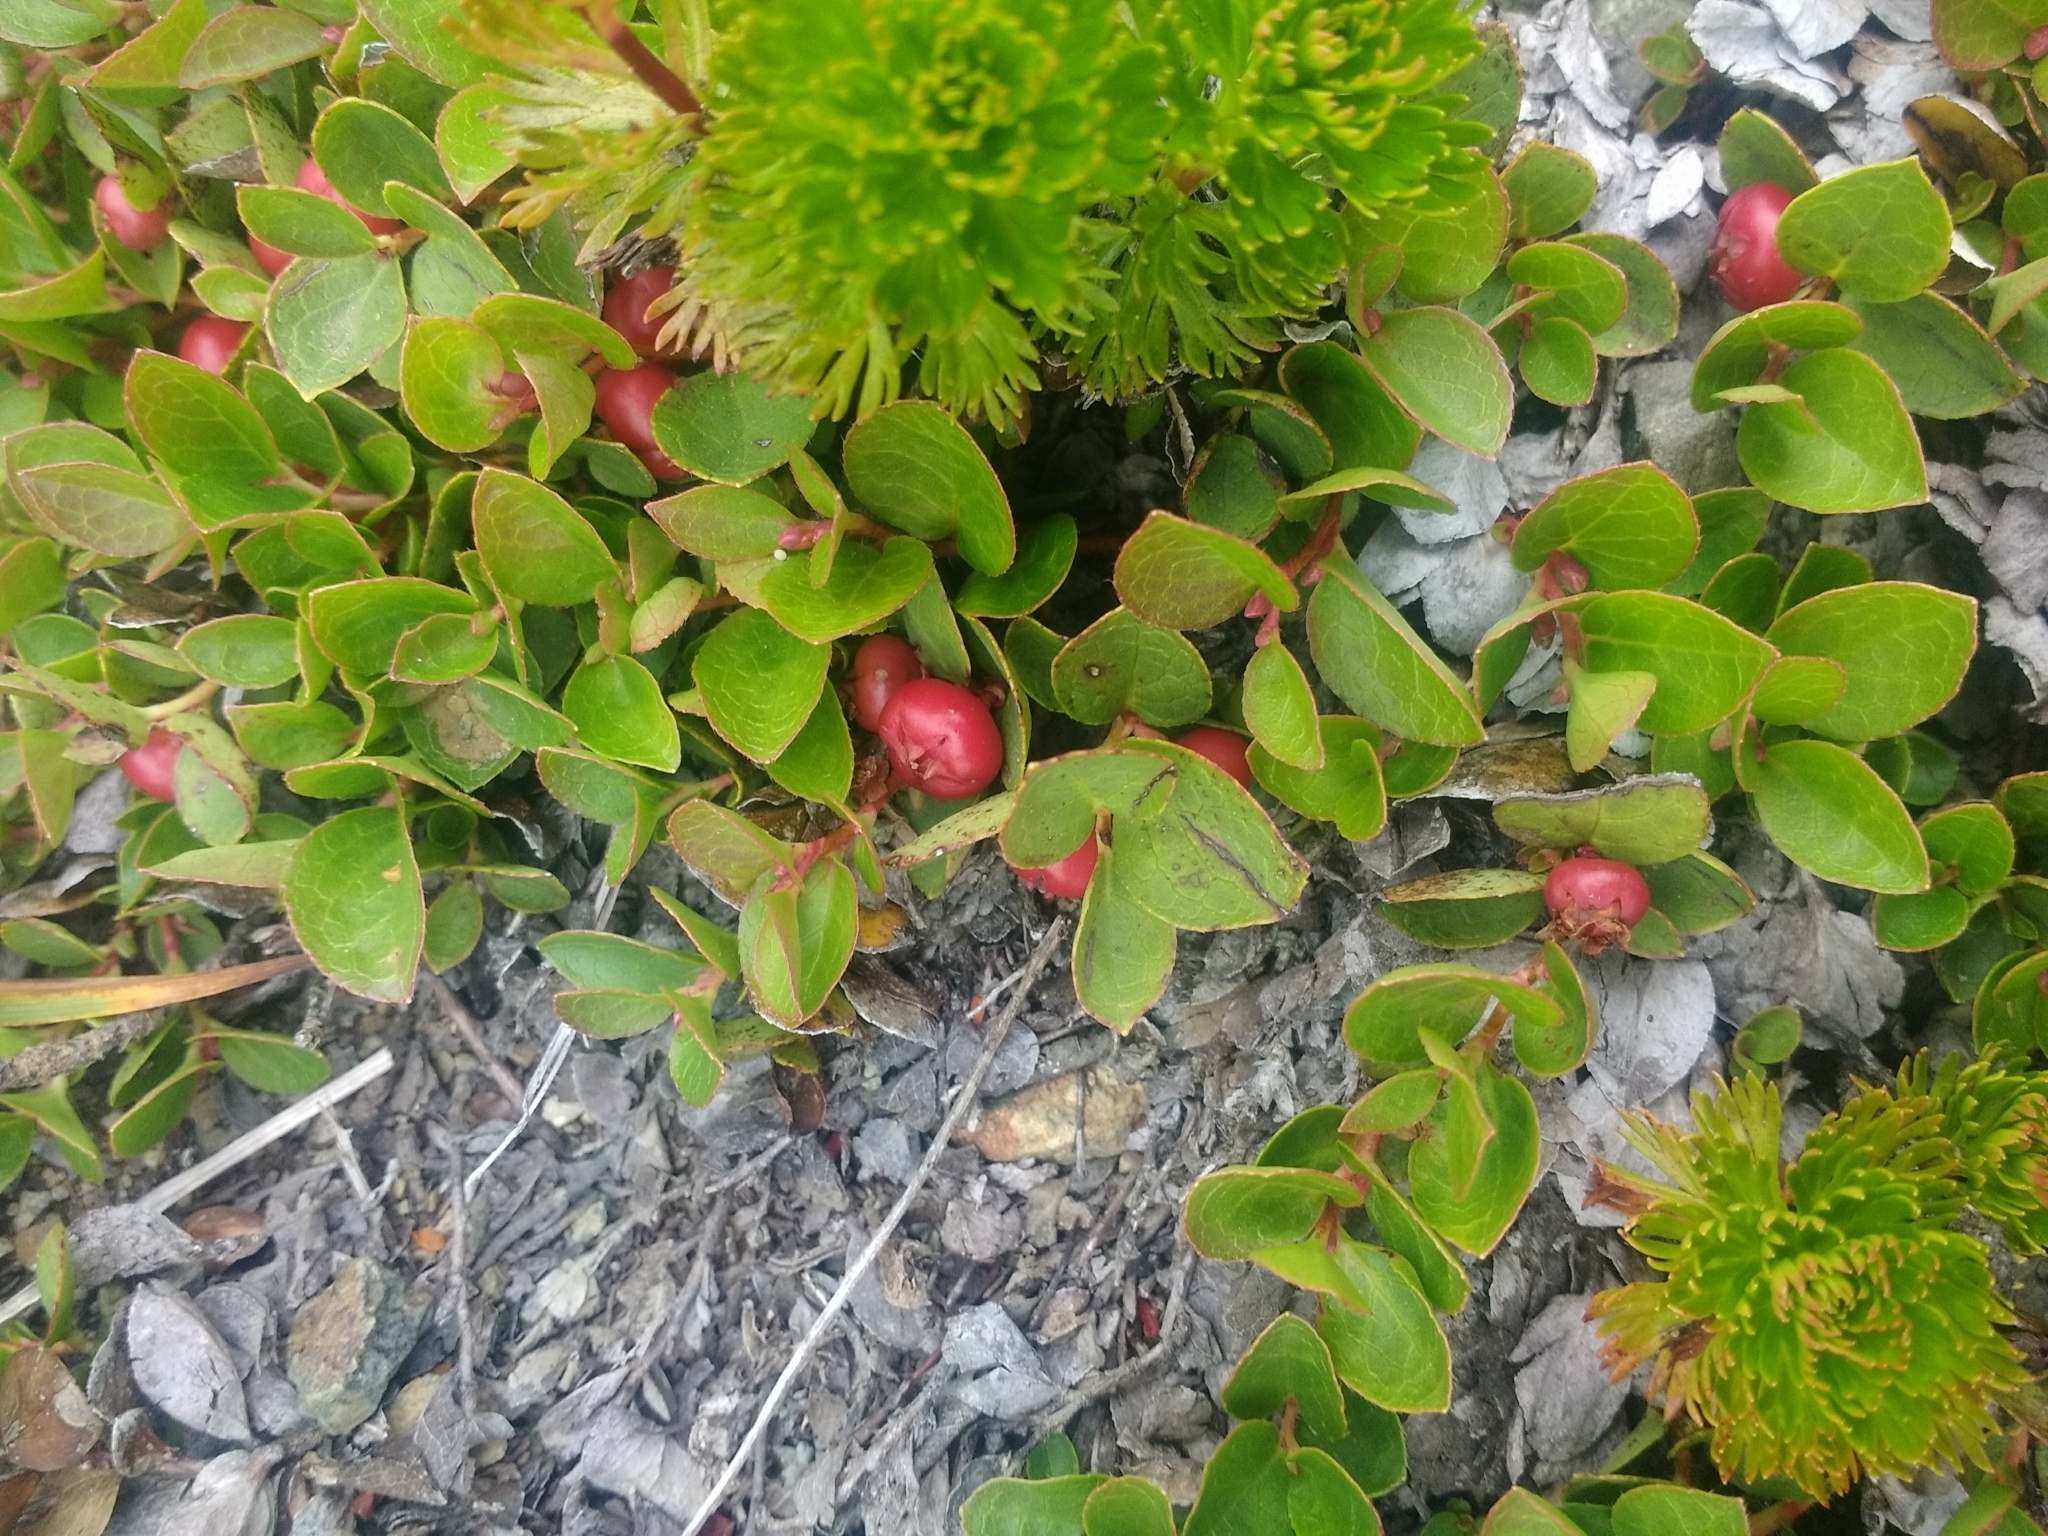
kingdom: Plantae
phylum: Tracheophyta
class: Magnoliopsida
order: Ericales
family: Ericaceae
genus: Gaultheria
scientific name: Gaultheria humifusa
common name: Alpine wintergreen
